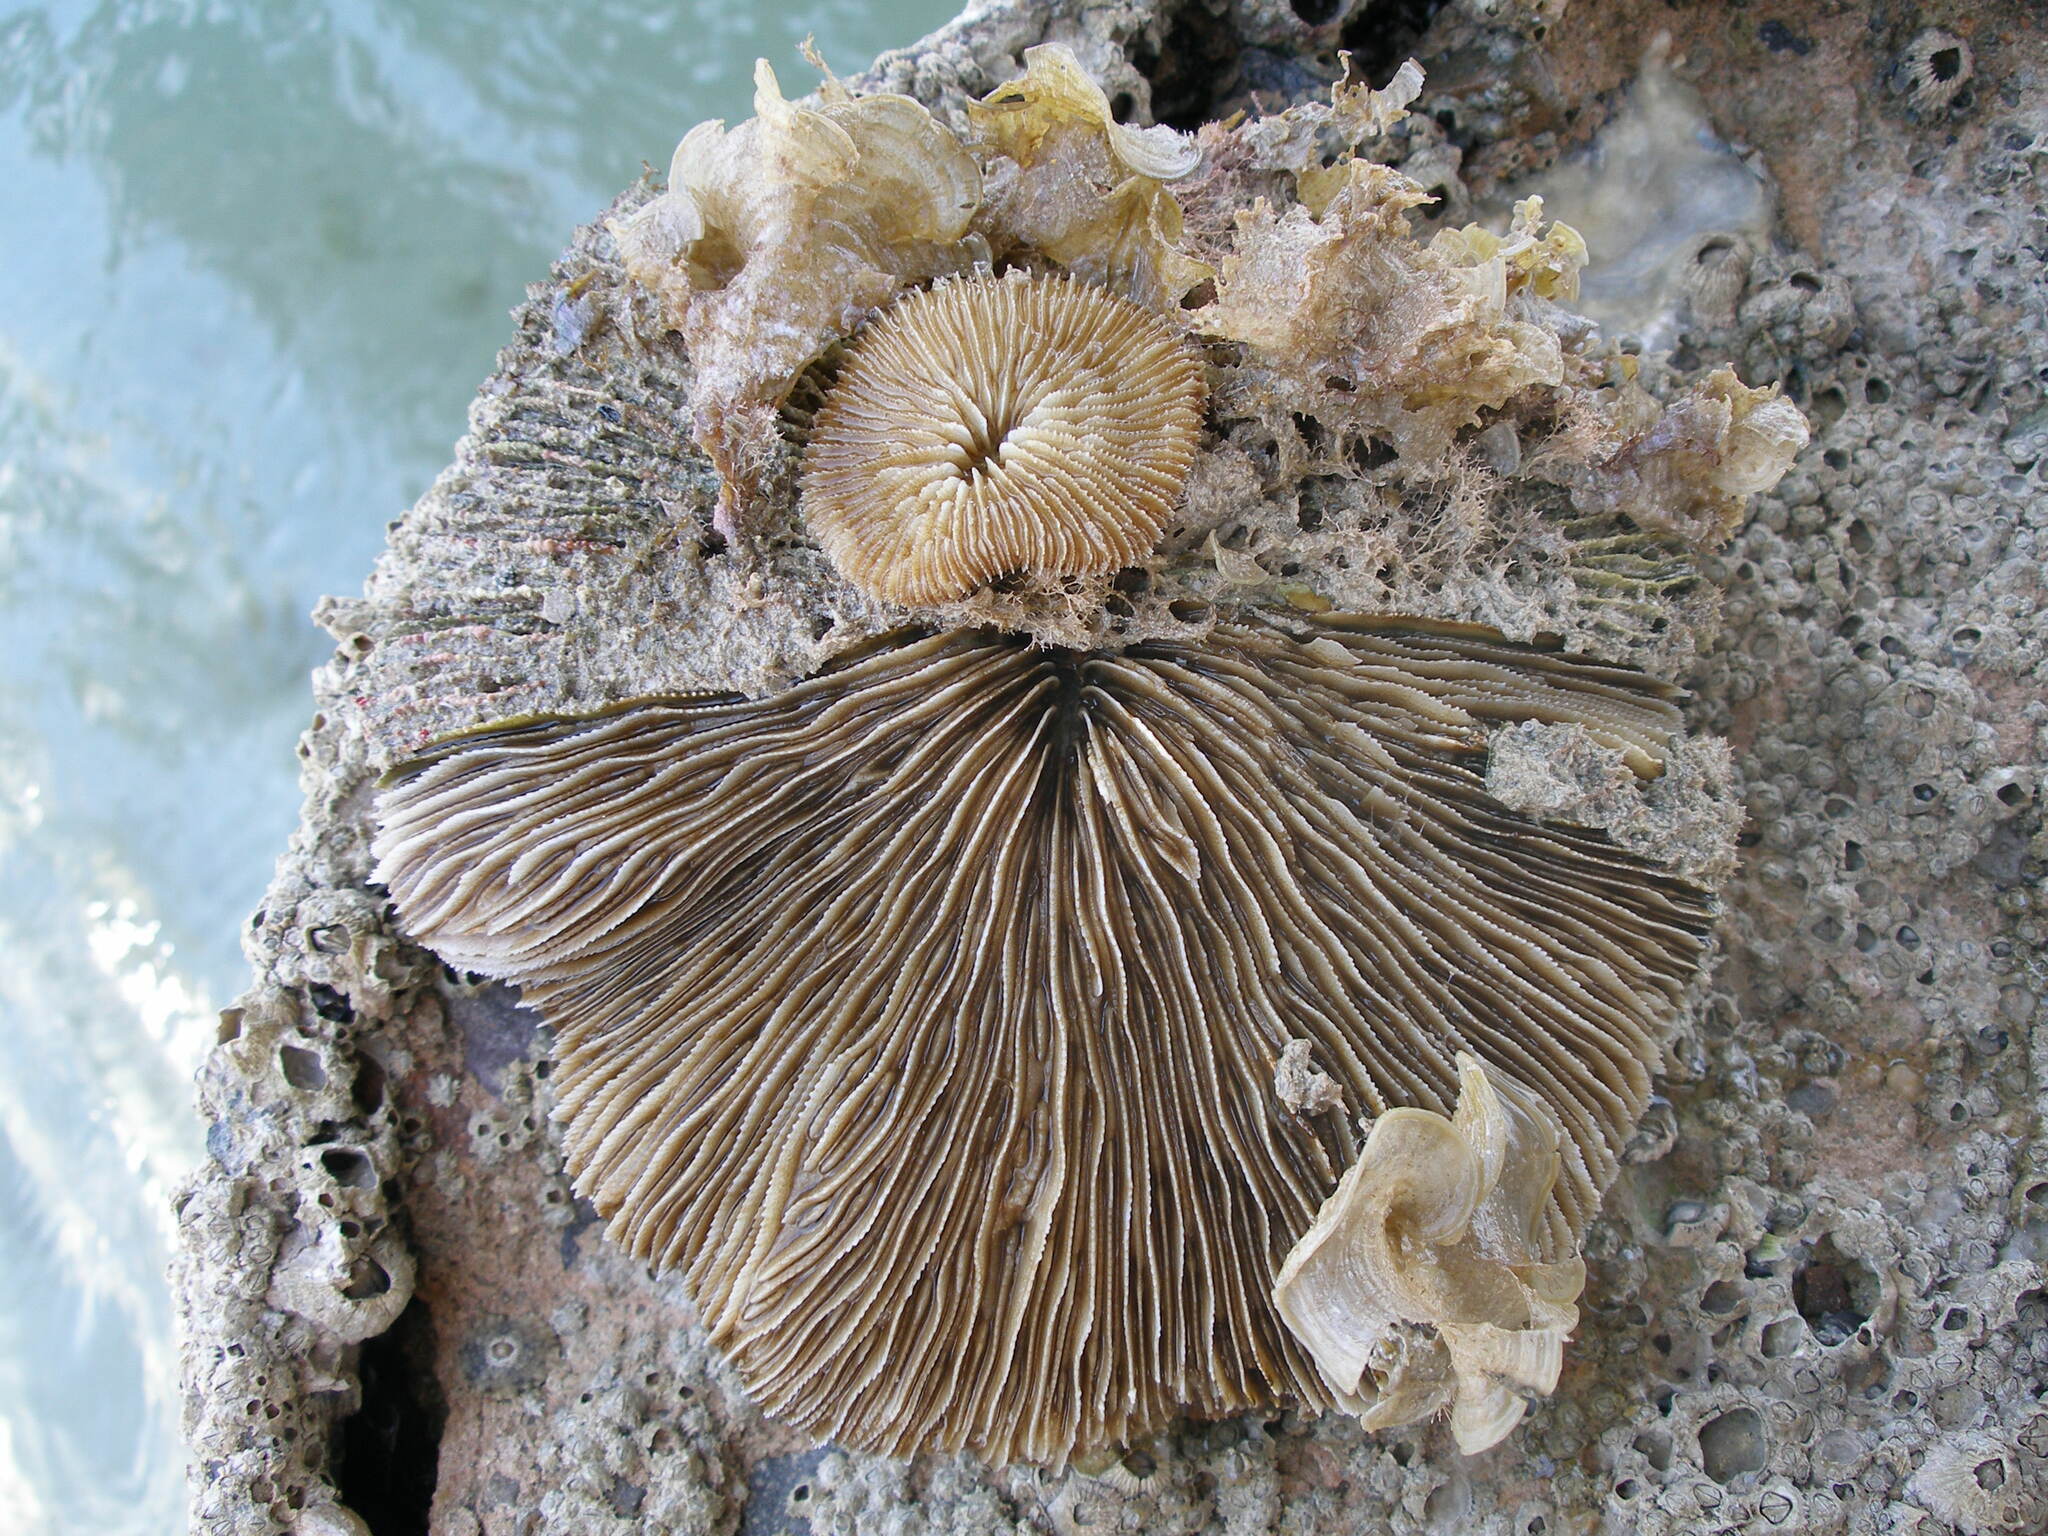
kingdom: Animalia
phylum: Cnidaria
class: Anthozoa
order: Scleractinia
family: Fungiidae
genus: Pleuractis
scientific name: Pleuractis granulosa
